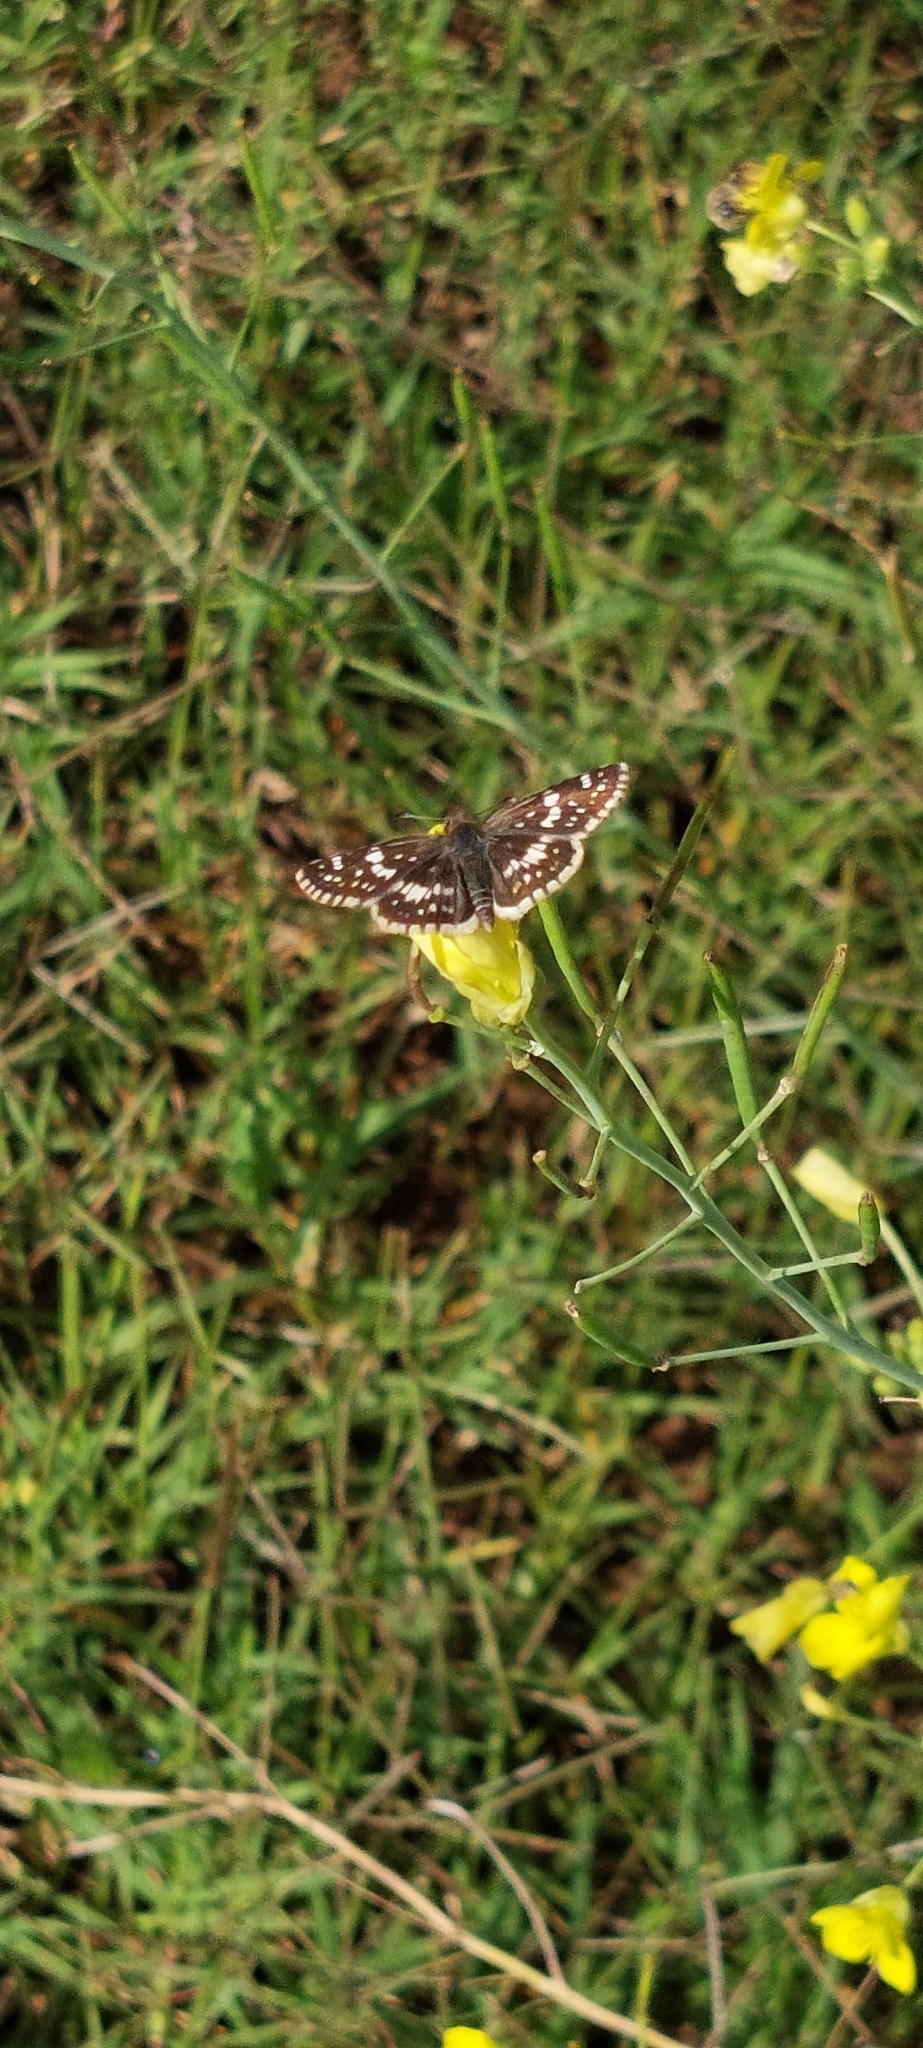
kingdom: Animalia
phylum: Arthropoda
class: Insecta
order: Lepidoptera
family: Hesperiidae
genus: Burnsius
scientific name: Burnsius orcynoides
